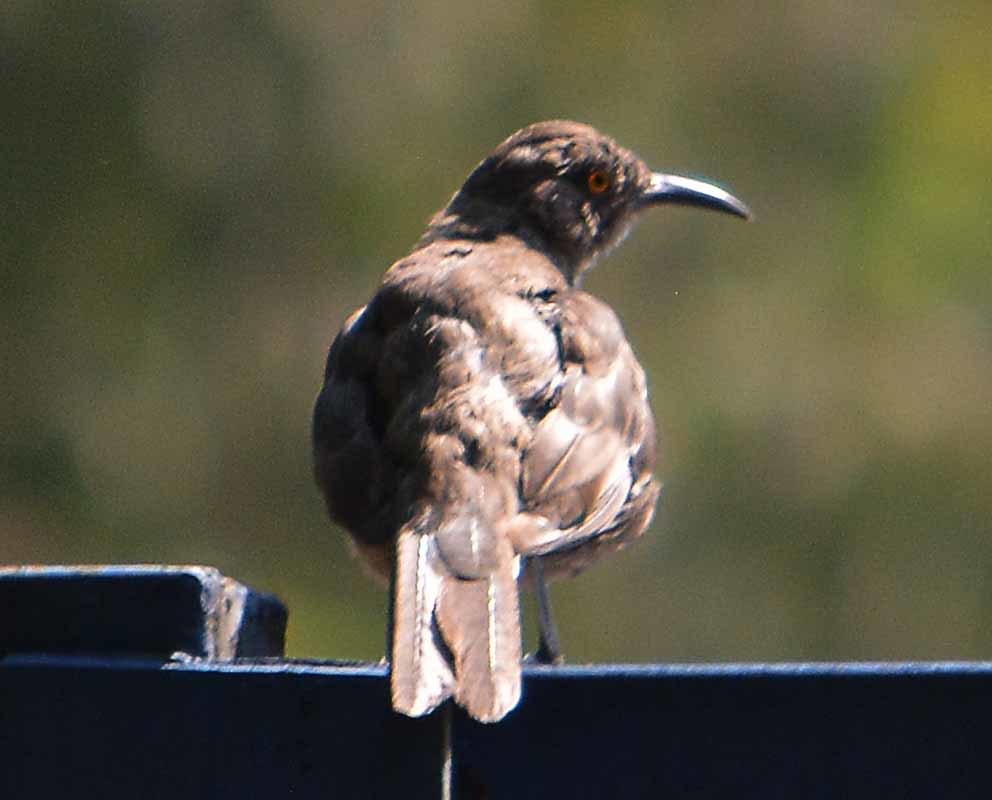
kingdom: Animalia
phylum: Chordata
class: Aves
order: Passeriformes
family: Mimidae
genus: Toxostoma
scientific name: Toxostoma curvirostre
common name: Curve-billed thrasher
